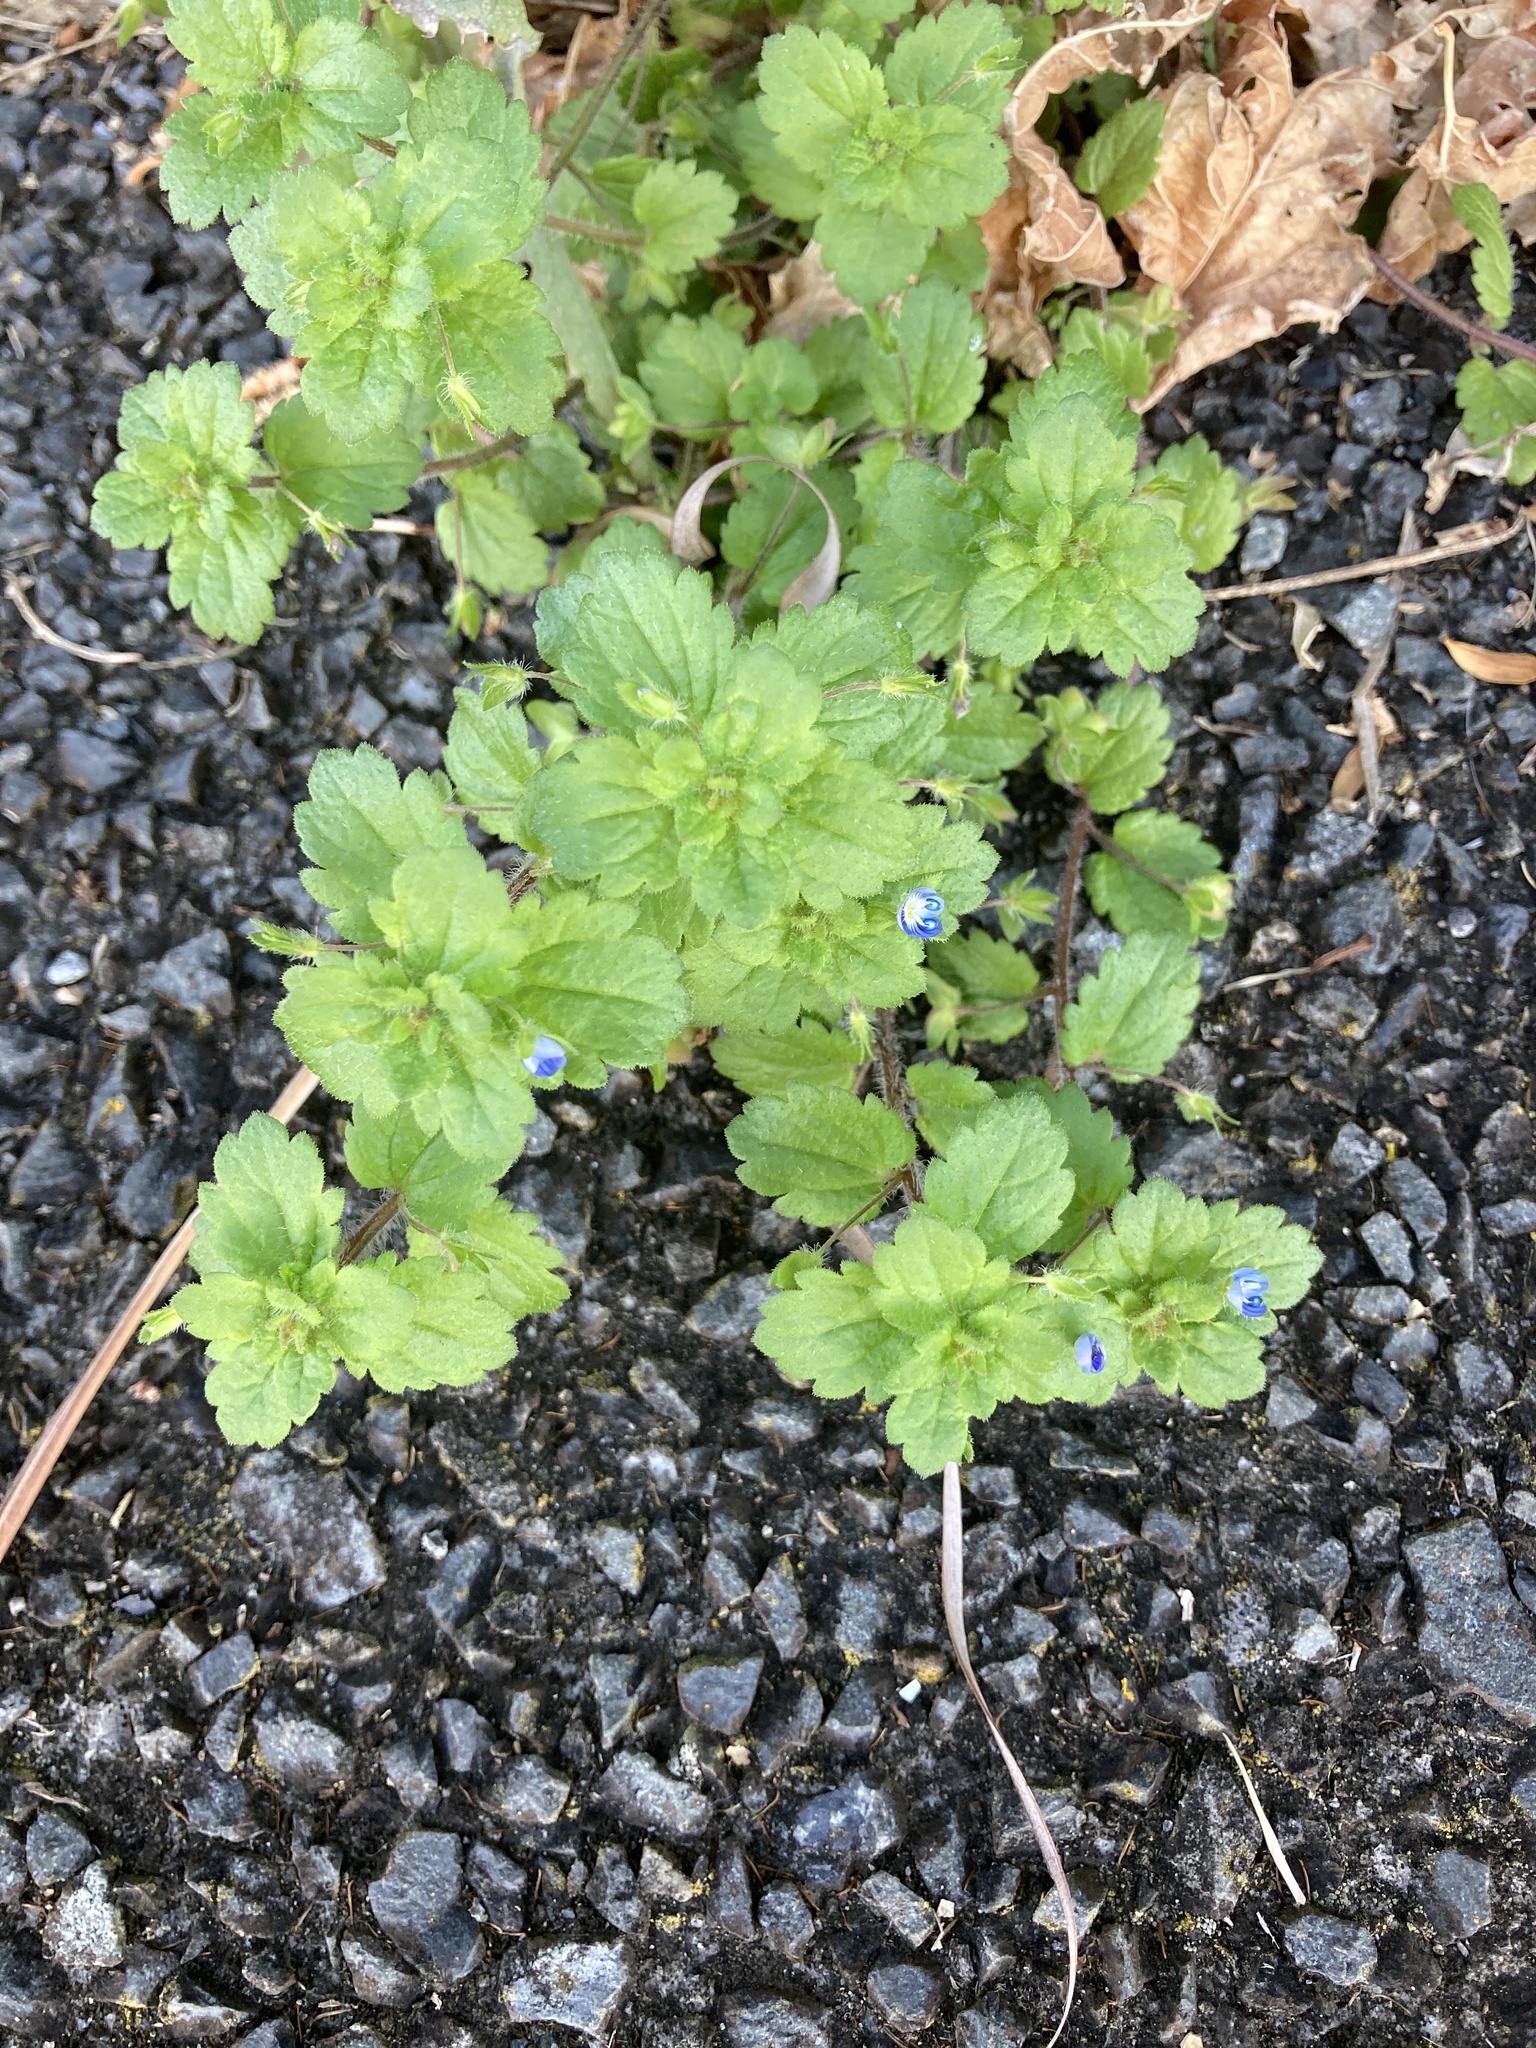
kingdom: Plantae
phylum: Tracheophyta
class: Magnoliopsida
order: Lamiales
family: Plantaginaceae
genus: Veronica
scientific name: Veronica persica
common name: Common field-speedwell
